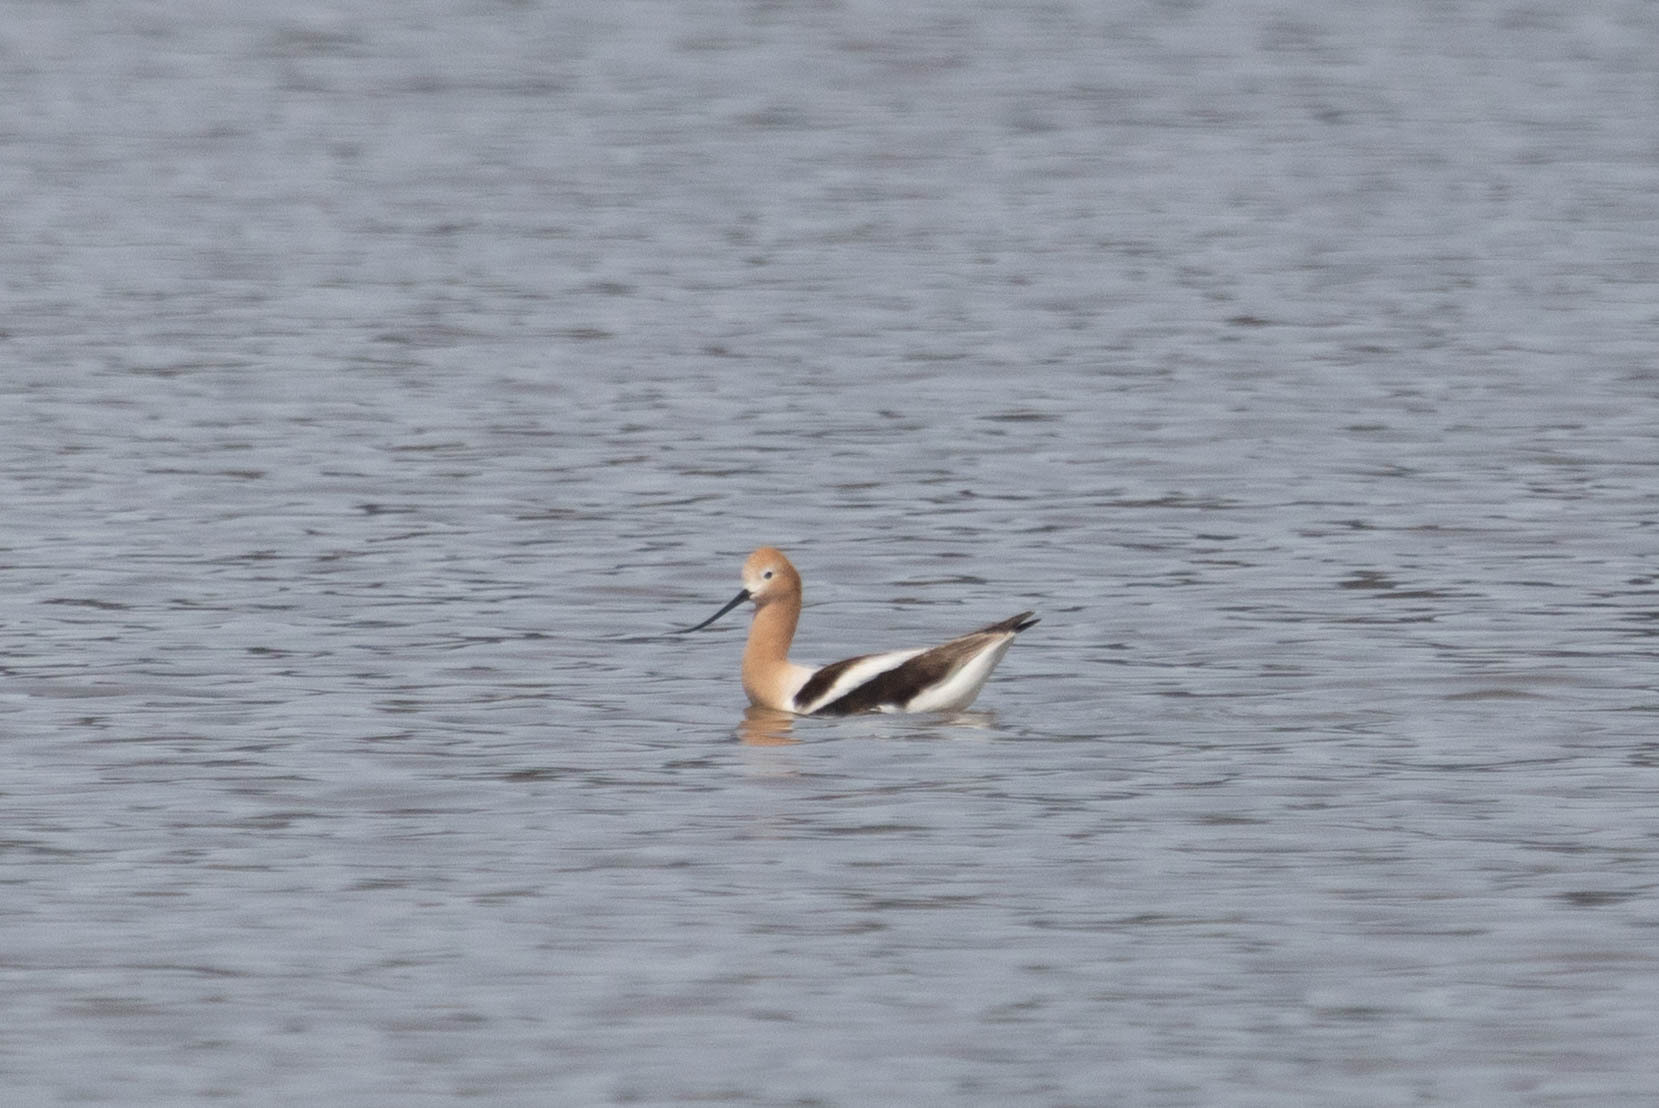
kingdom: Animalia
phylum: Chordata
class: Aves
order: Charadriiformes
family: Recurvirostridae
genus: Recurvirostra
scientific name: Recurvirostra americana
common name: American avocet
